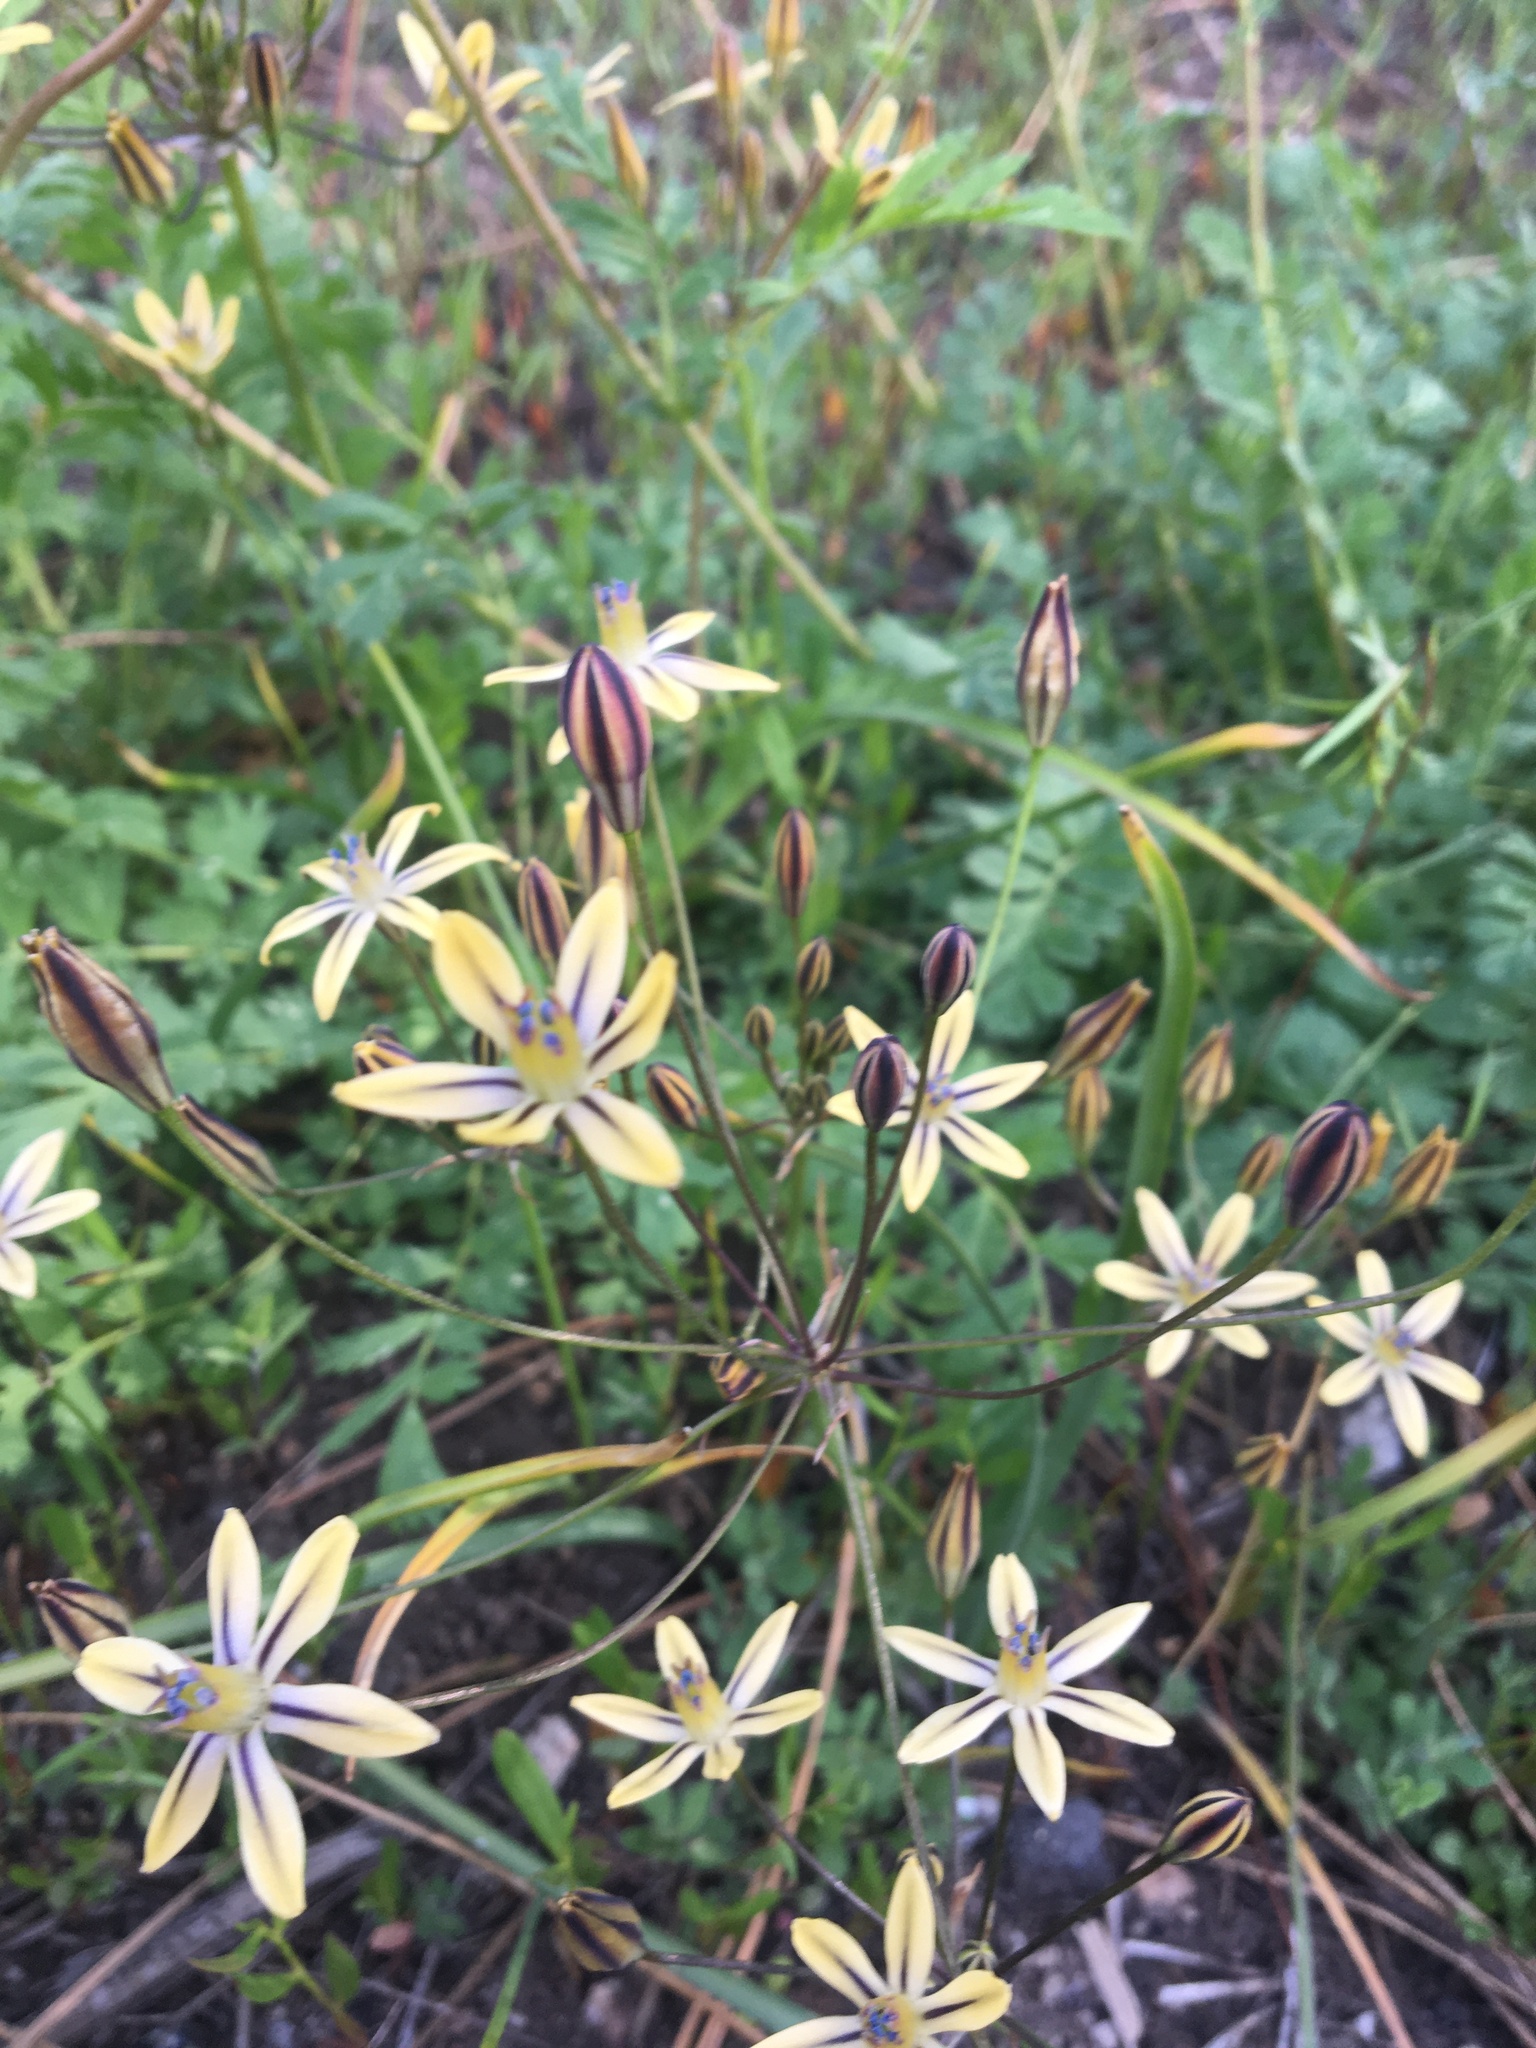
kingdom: Plantae
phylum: Tracheophyta
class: Liliopsida
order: Asparagales
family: Asparagaceae
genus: Triteleia
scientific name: Triteleia ixioides
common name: Yellow-brodiaea
